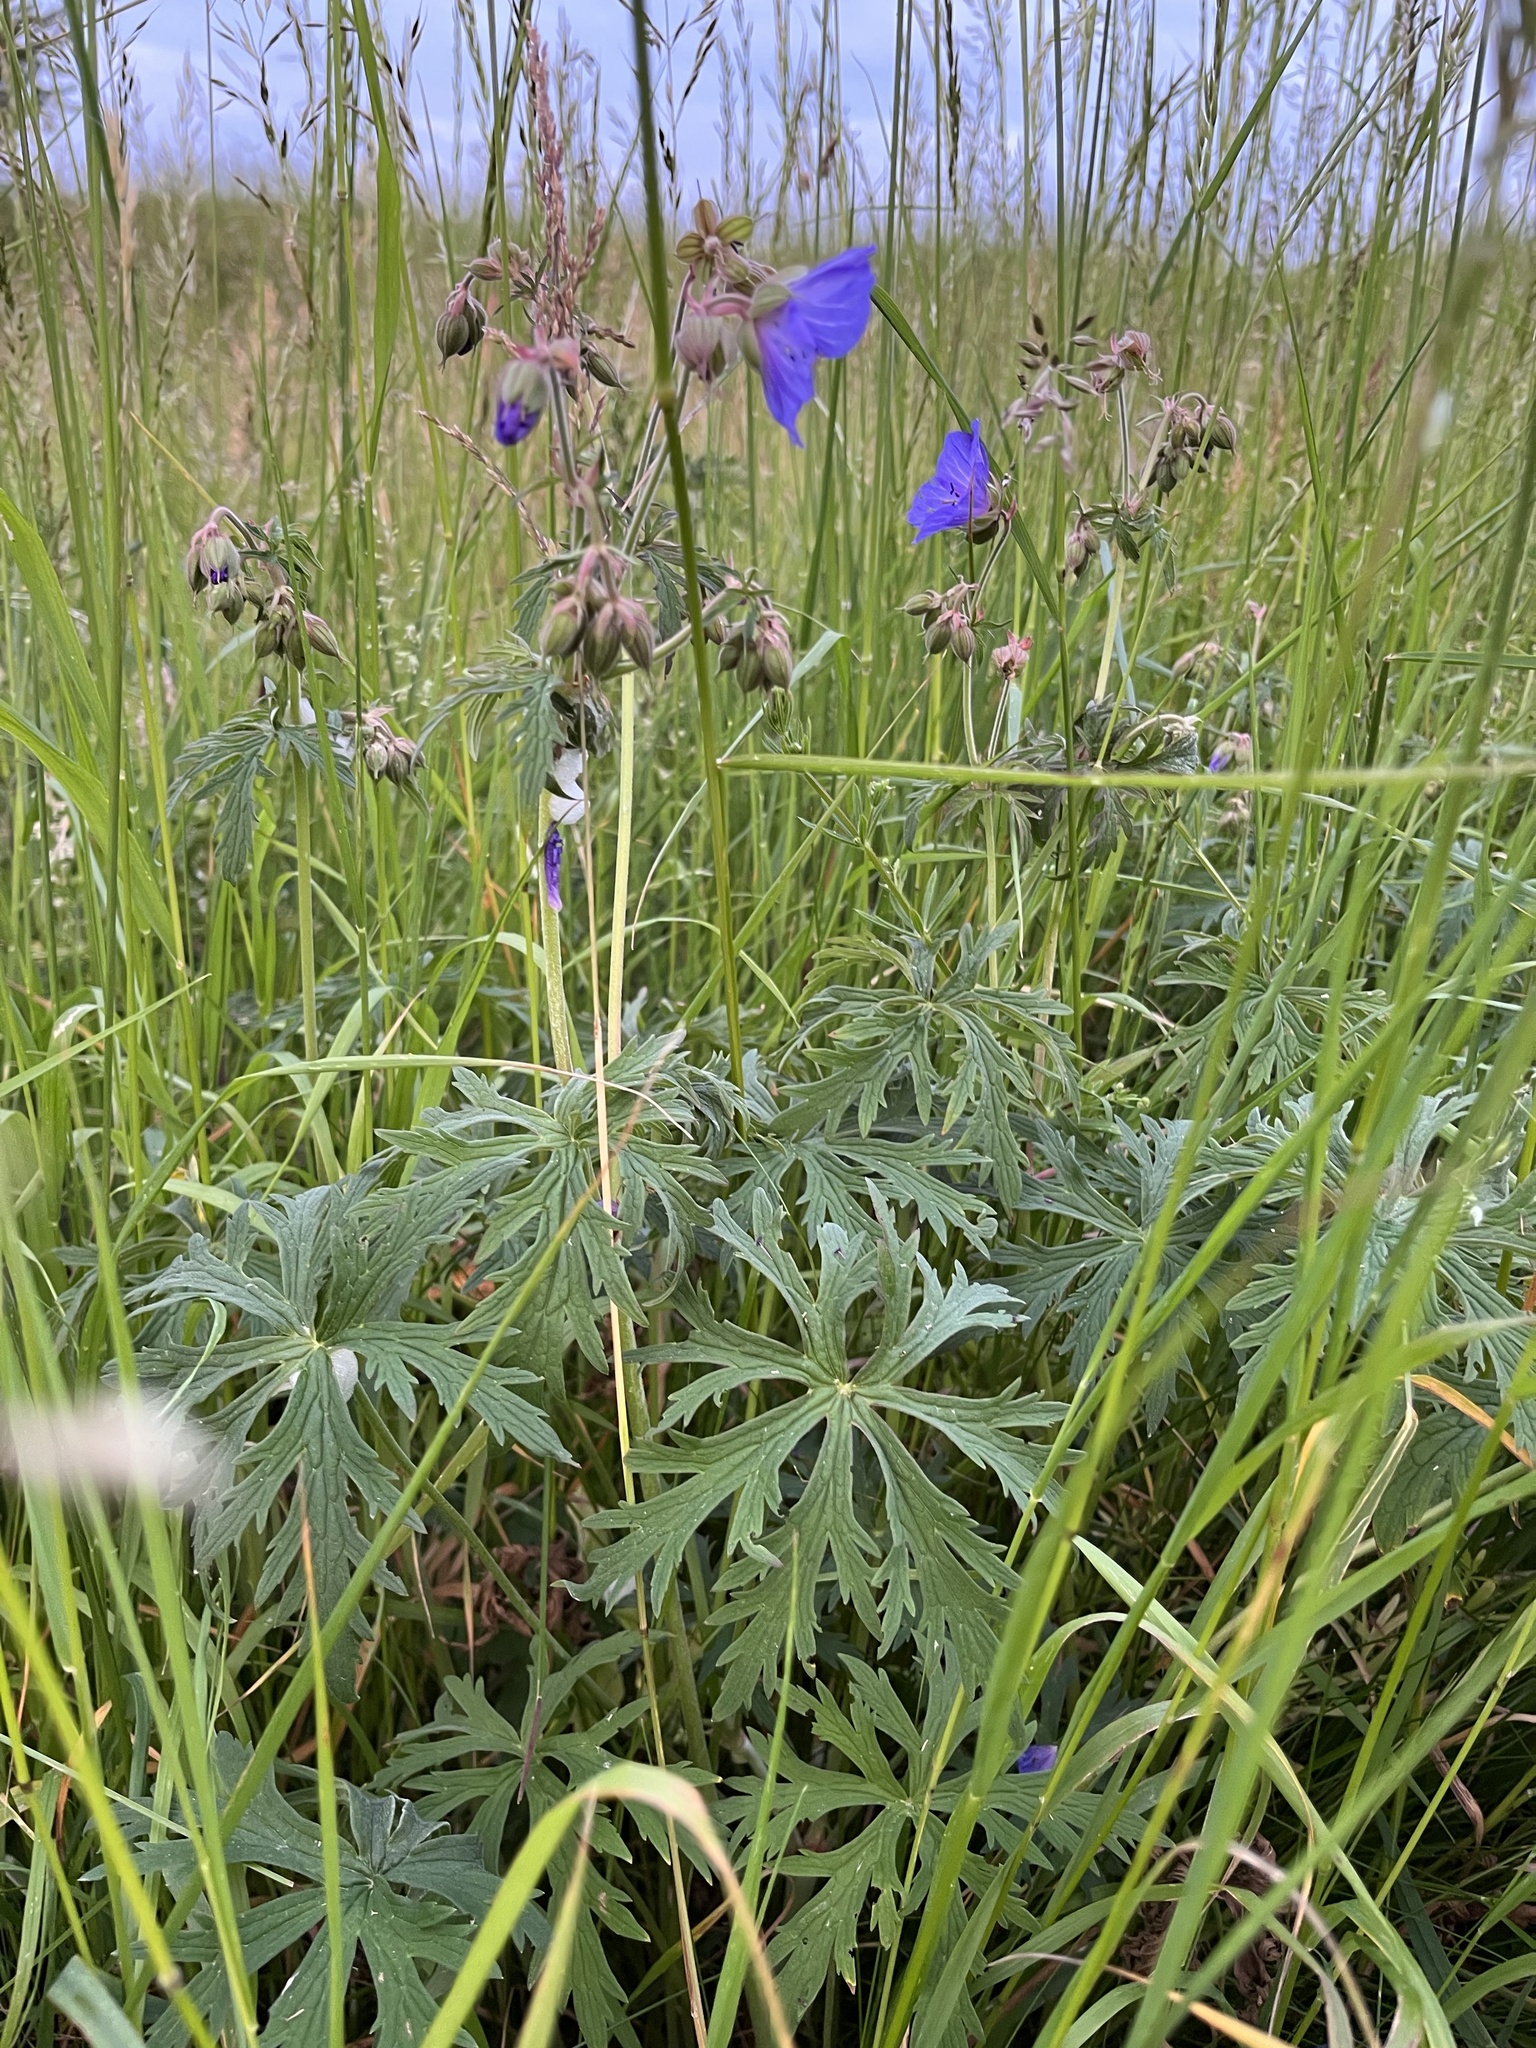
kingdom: Plantae
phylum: Tracheophyta
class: Magnoliopsida
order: Geraniales
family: Geraniaceae
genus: Geranium
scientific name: Geranium pratense
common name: Meadow crane's-bill
